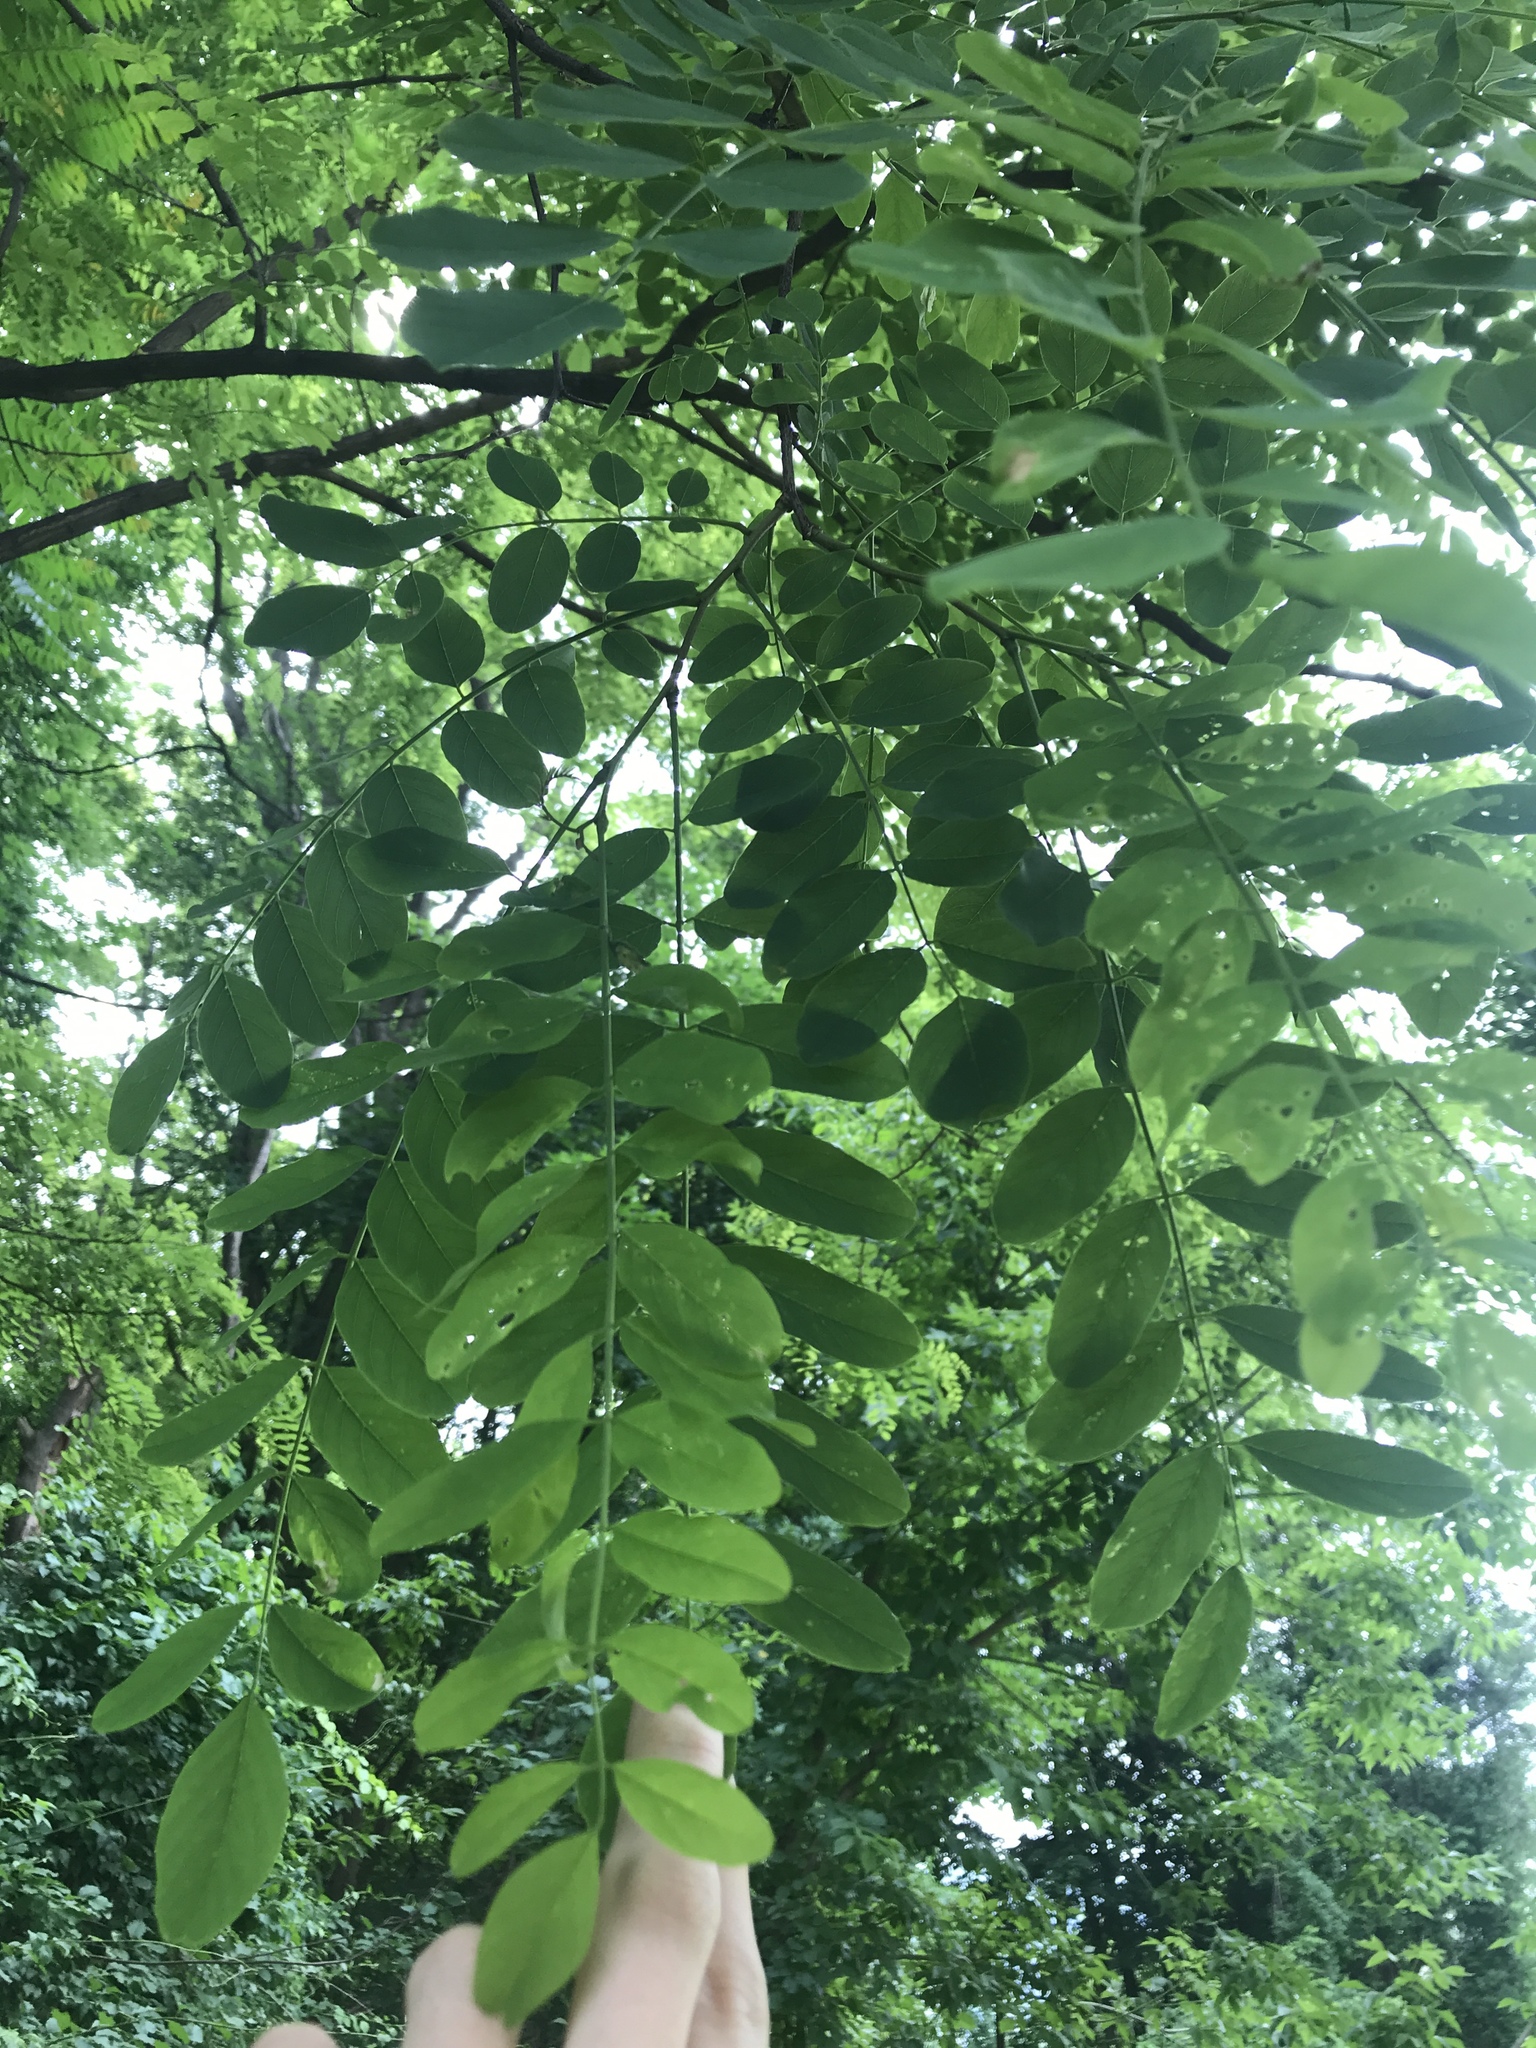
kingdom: Plantae
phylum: Tracheophyta
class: Magnoliopsida
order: Fabales
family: Fabaceae
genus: Robinia
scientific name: Robinia pseudoacacia
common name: Black locust
